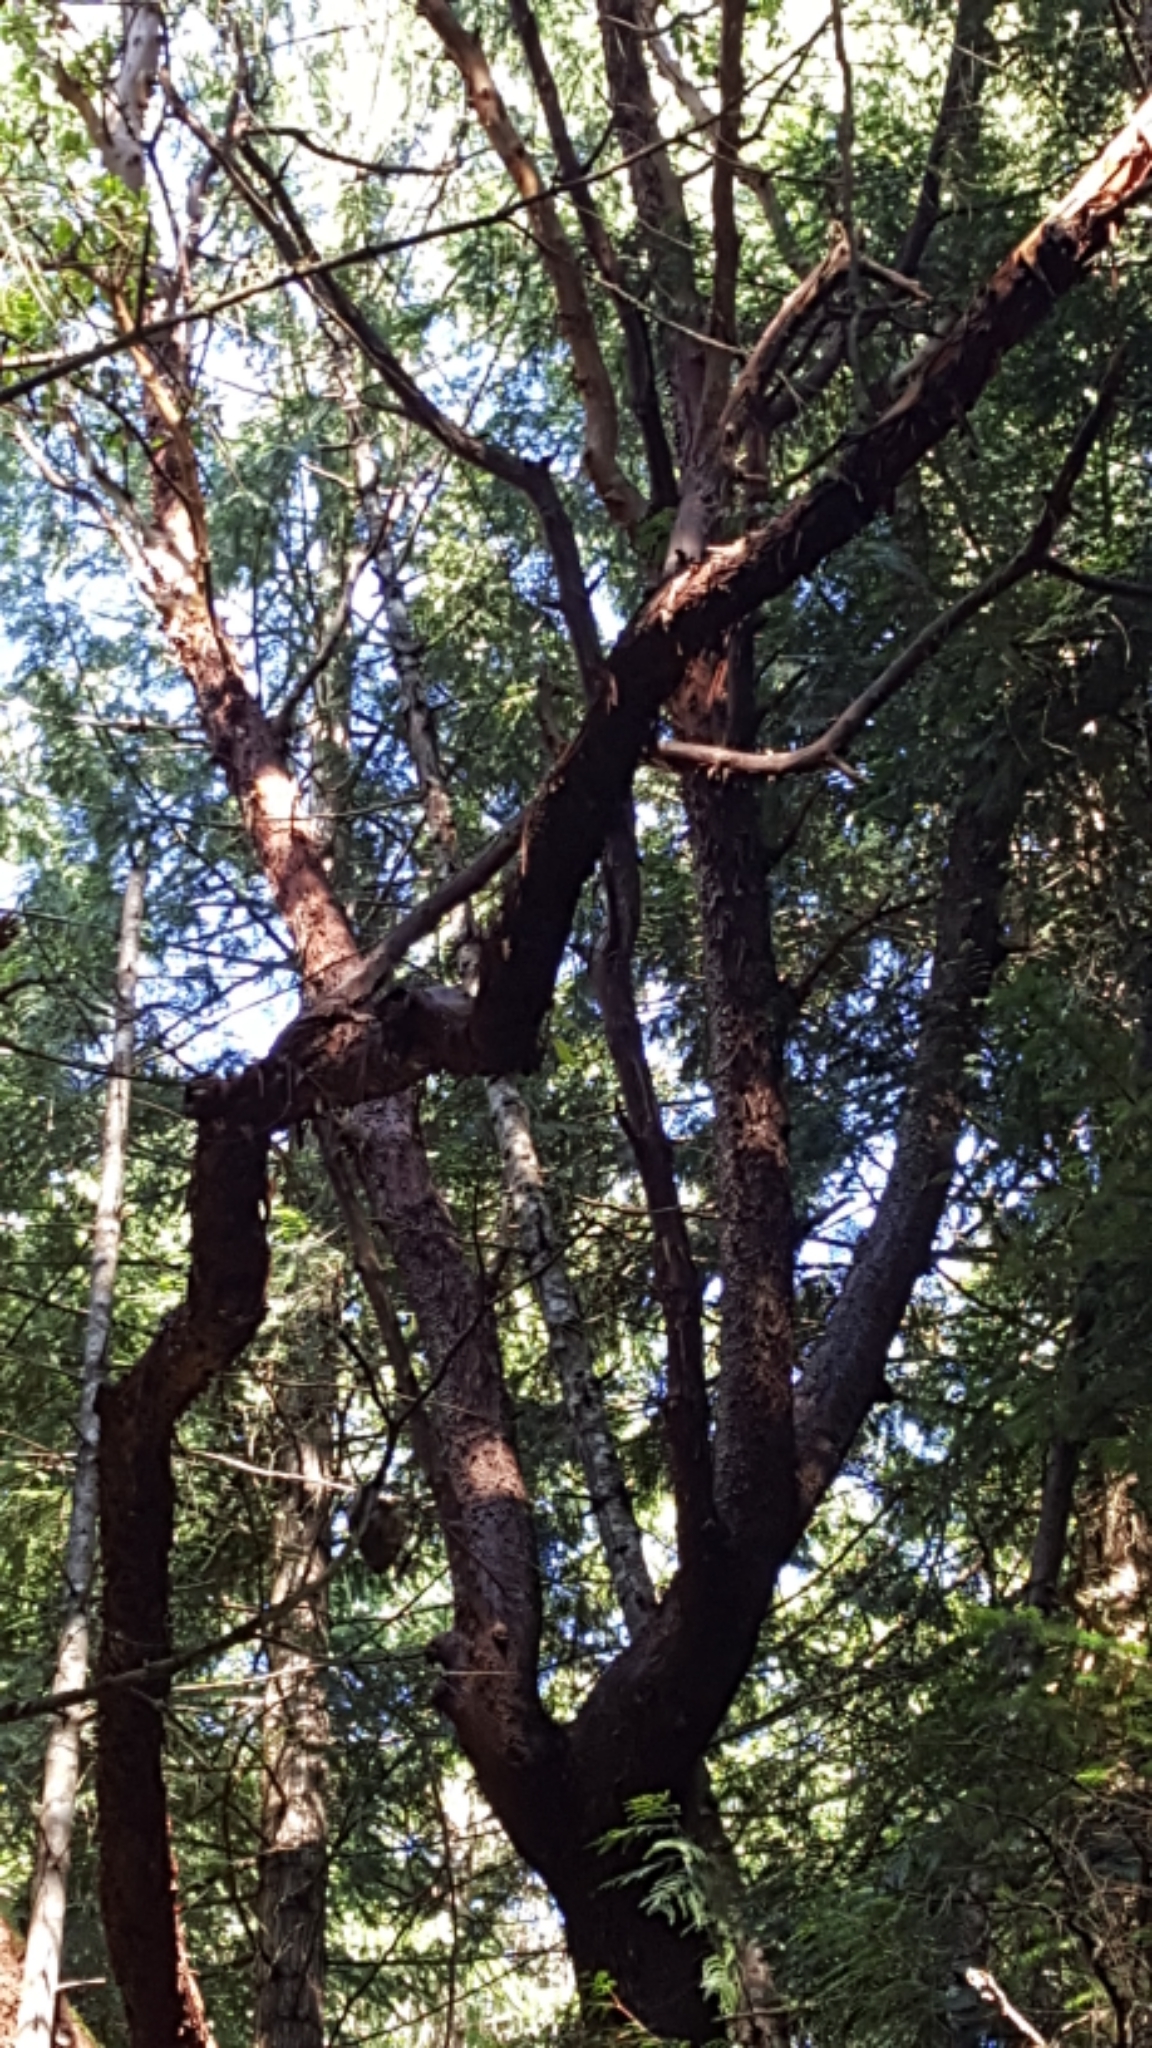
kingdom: Plantae
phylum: Tracheophyta
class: Magnoliopsida
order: Ericales
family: Ericaceae
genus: Arbutus
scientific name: Arbutus menziesii
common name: Pacific madrone
